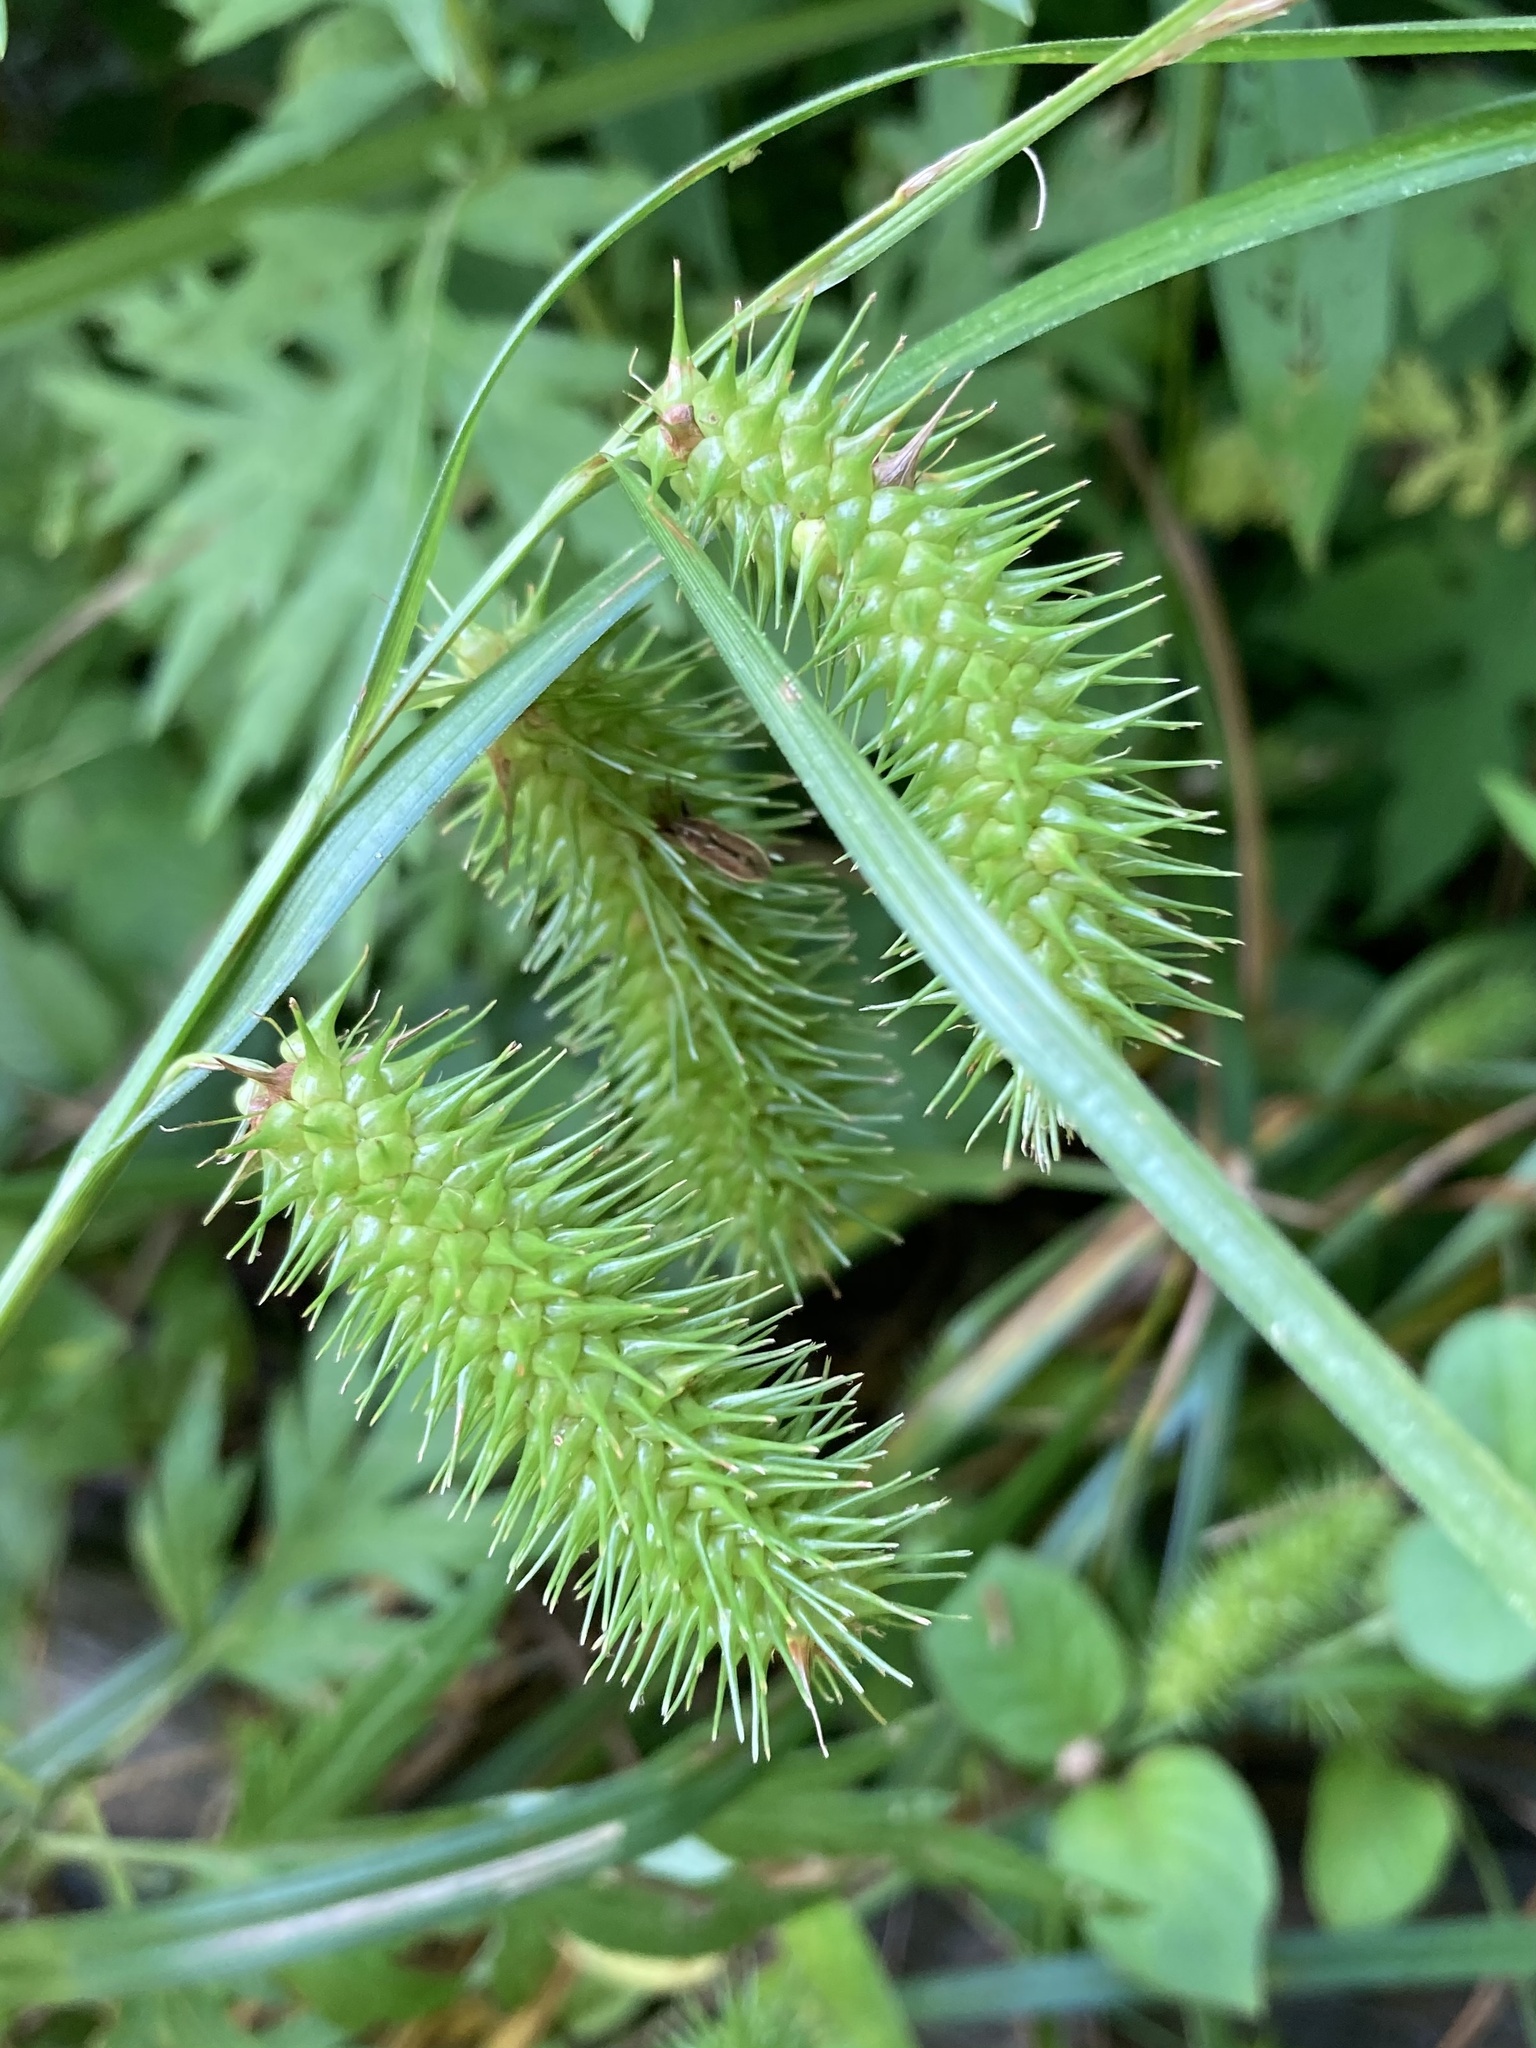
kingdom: Plantae
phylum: Tracheophyta
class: Liliopsida
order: Poales
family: Cyperaceae
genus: Carex
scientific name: Carex lurida
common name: Sallow sedge
